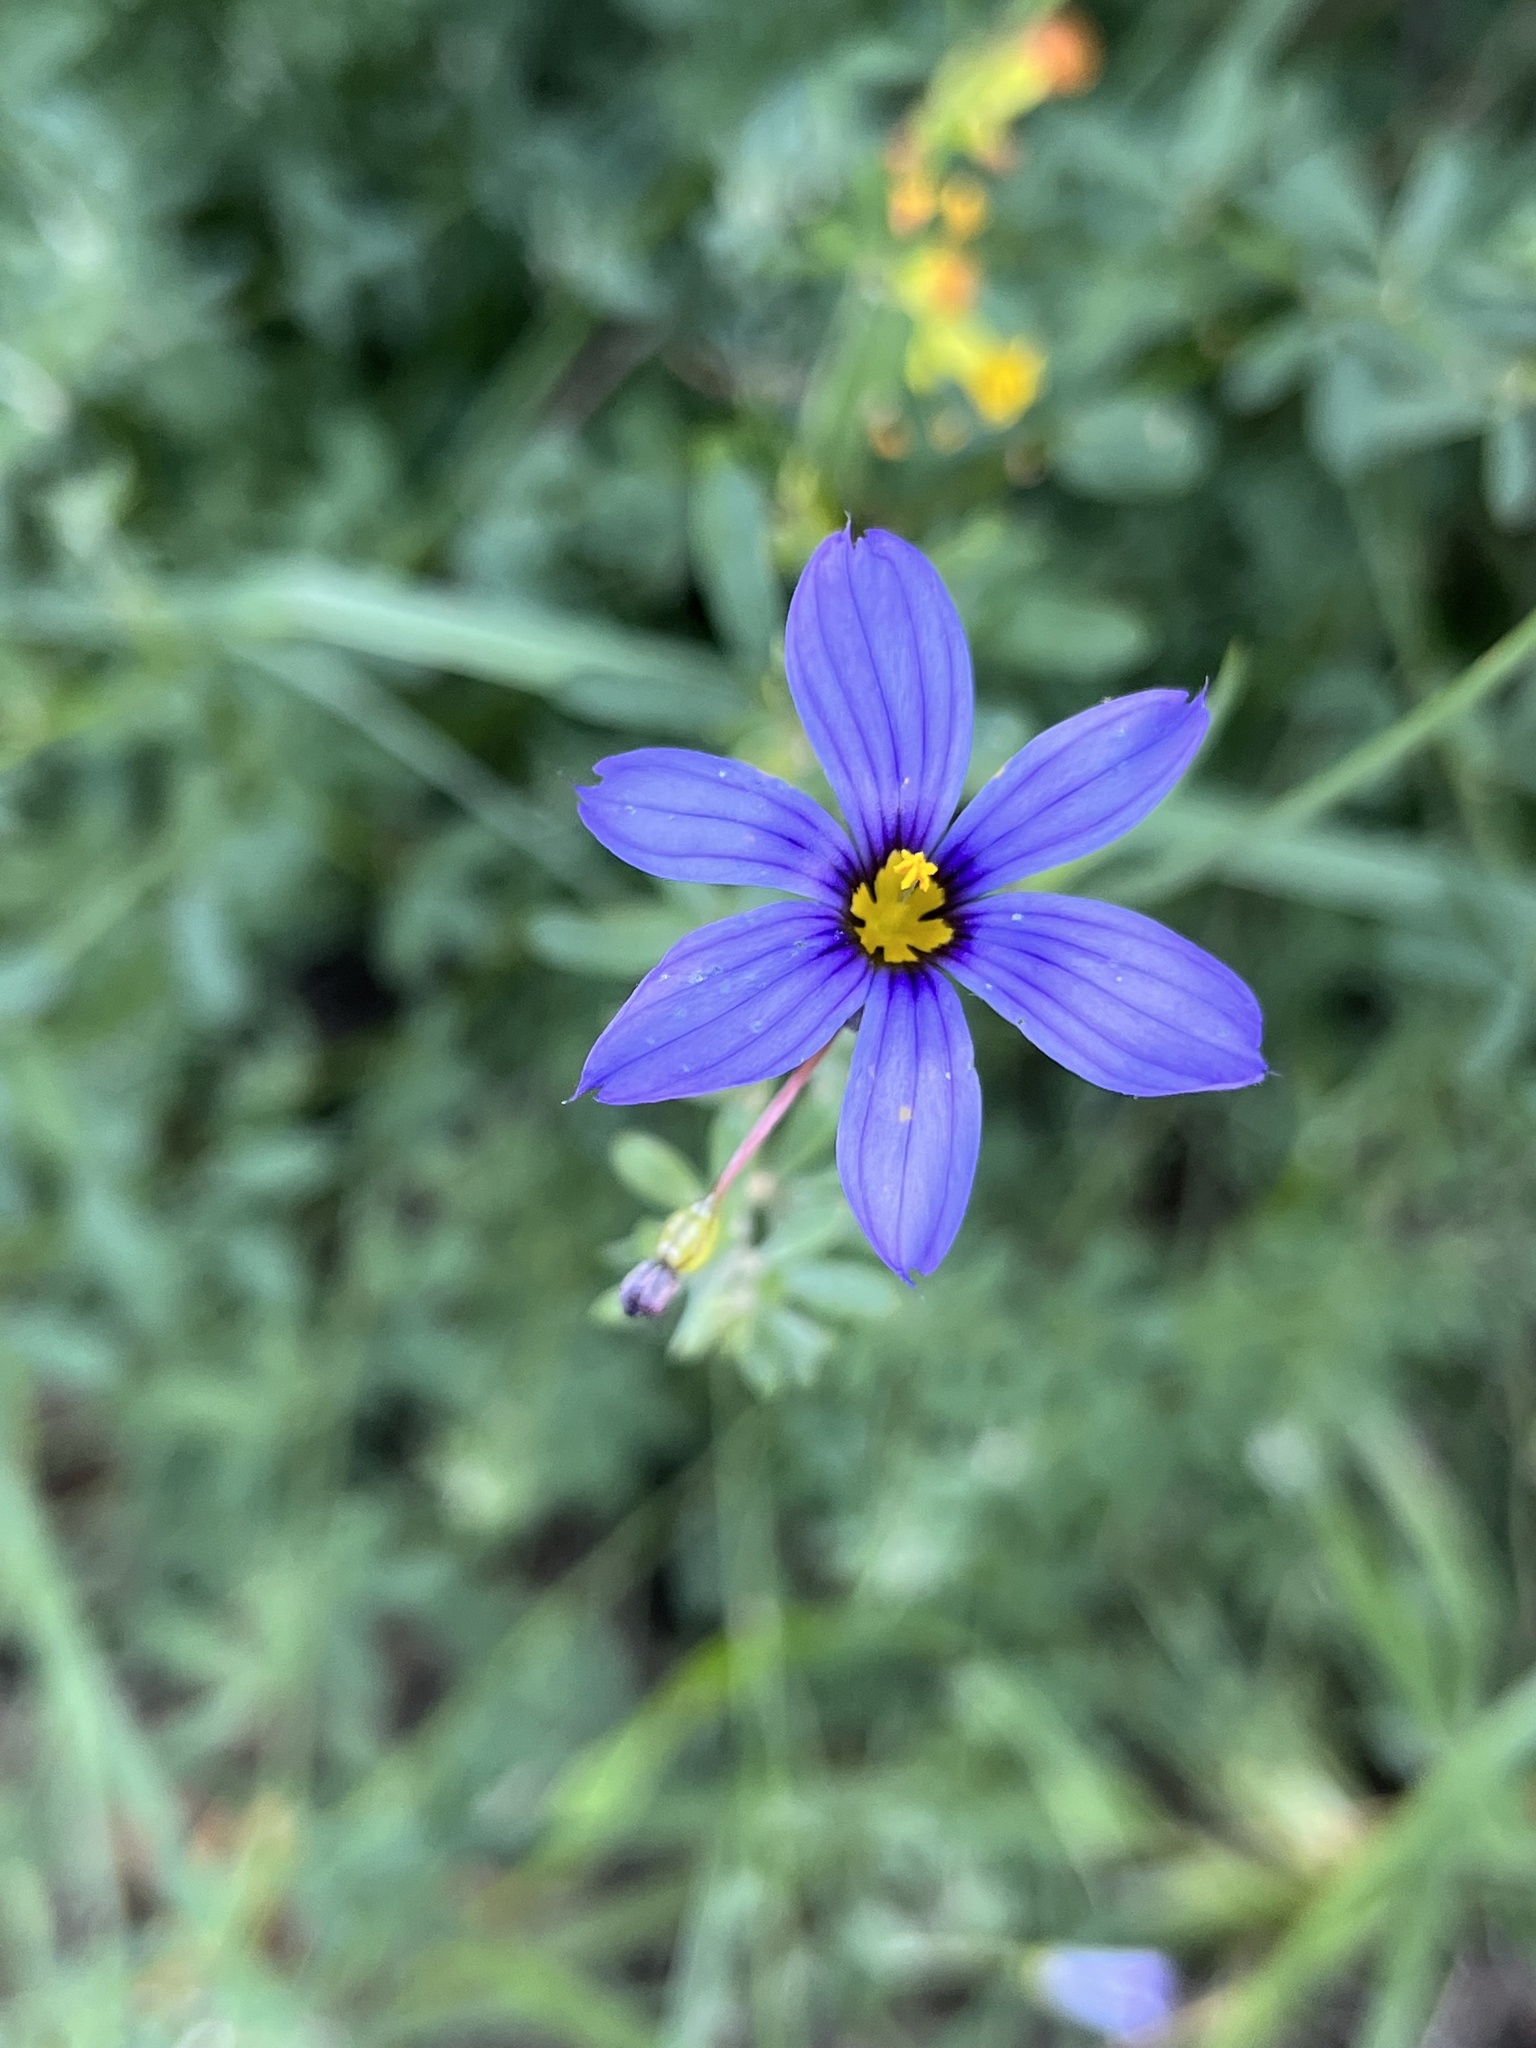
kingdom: Plantae
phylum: Tracheophyta
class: Liliopsida
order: Asparagales
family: Iridaceae
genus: Sisyrinchium
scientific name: Sisyrinchium bellum
